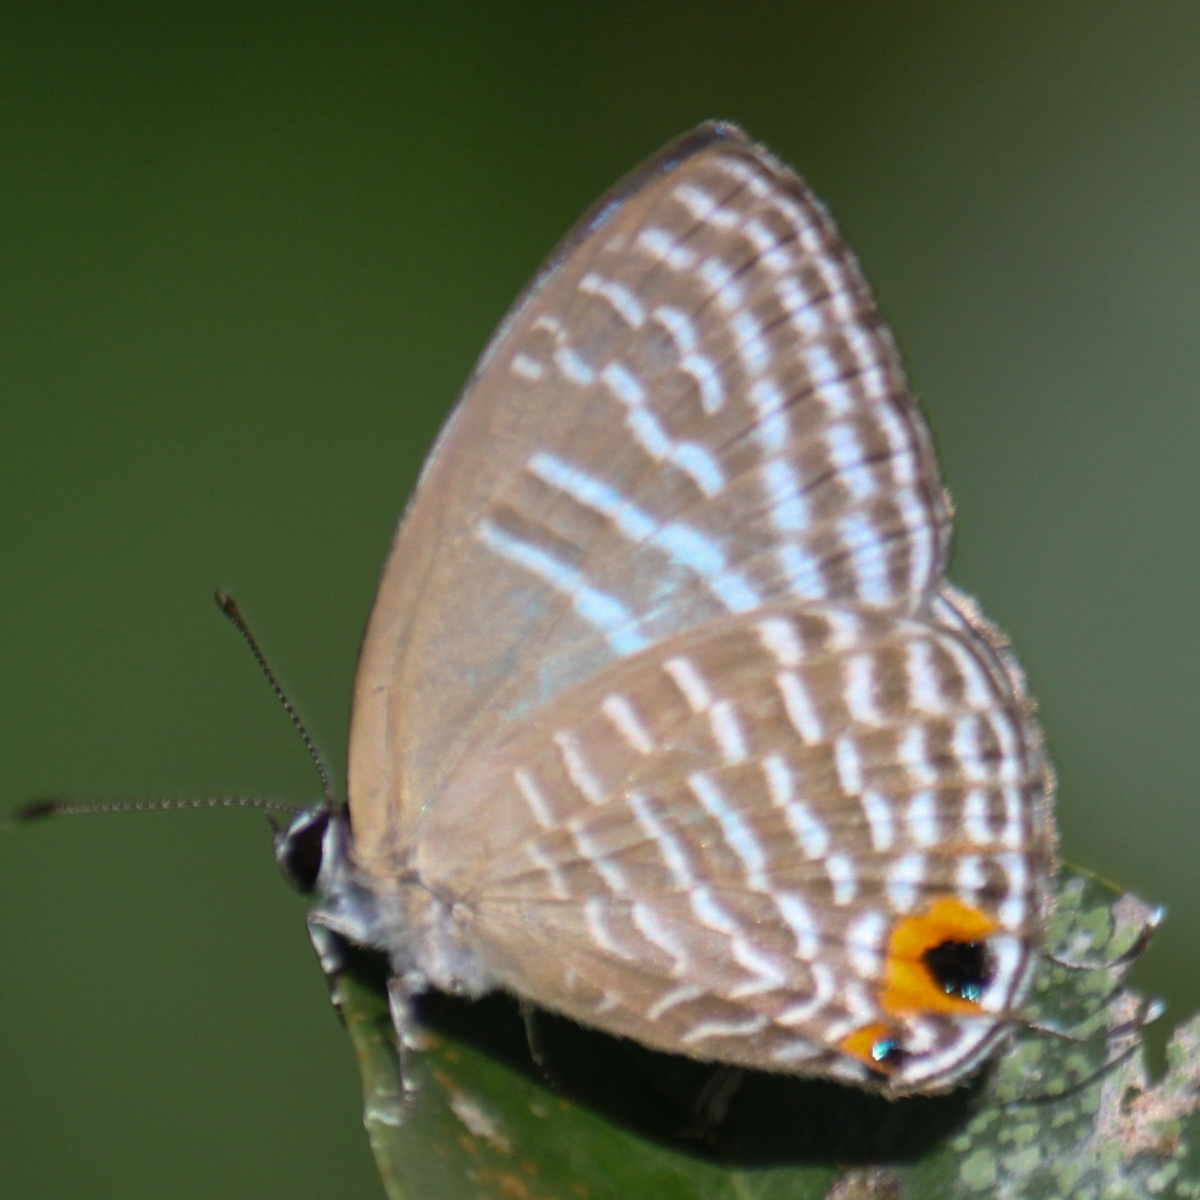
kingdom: Animalia
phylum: Arthropoda
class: Insecta
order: Lepidoptera
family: Lycaenidae
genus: Jamides
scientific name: Jamides alecto
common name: Metallic cerulean
